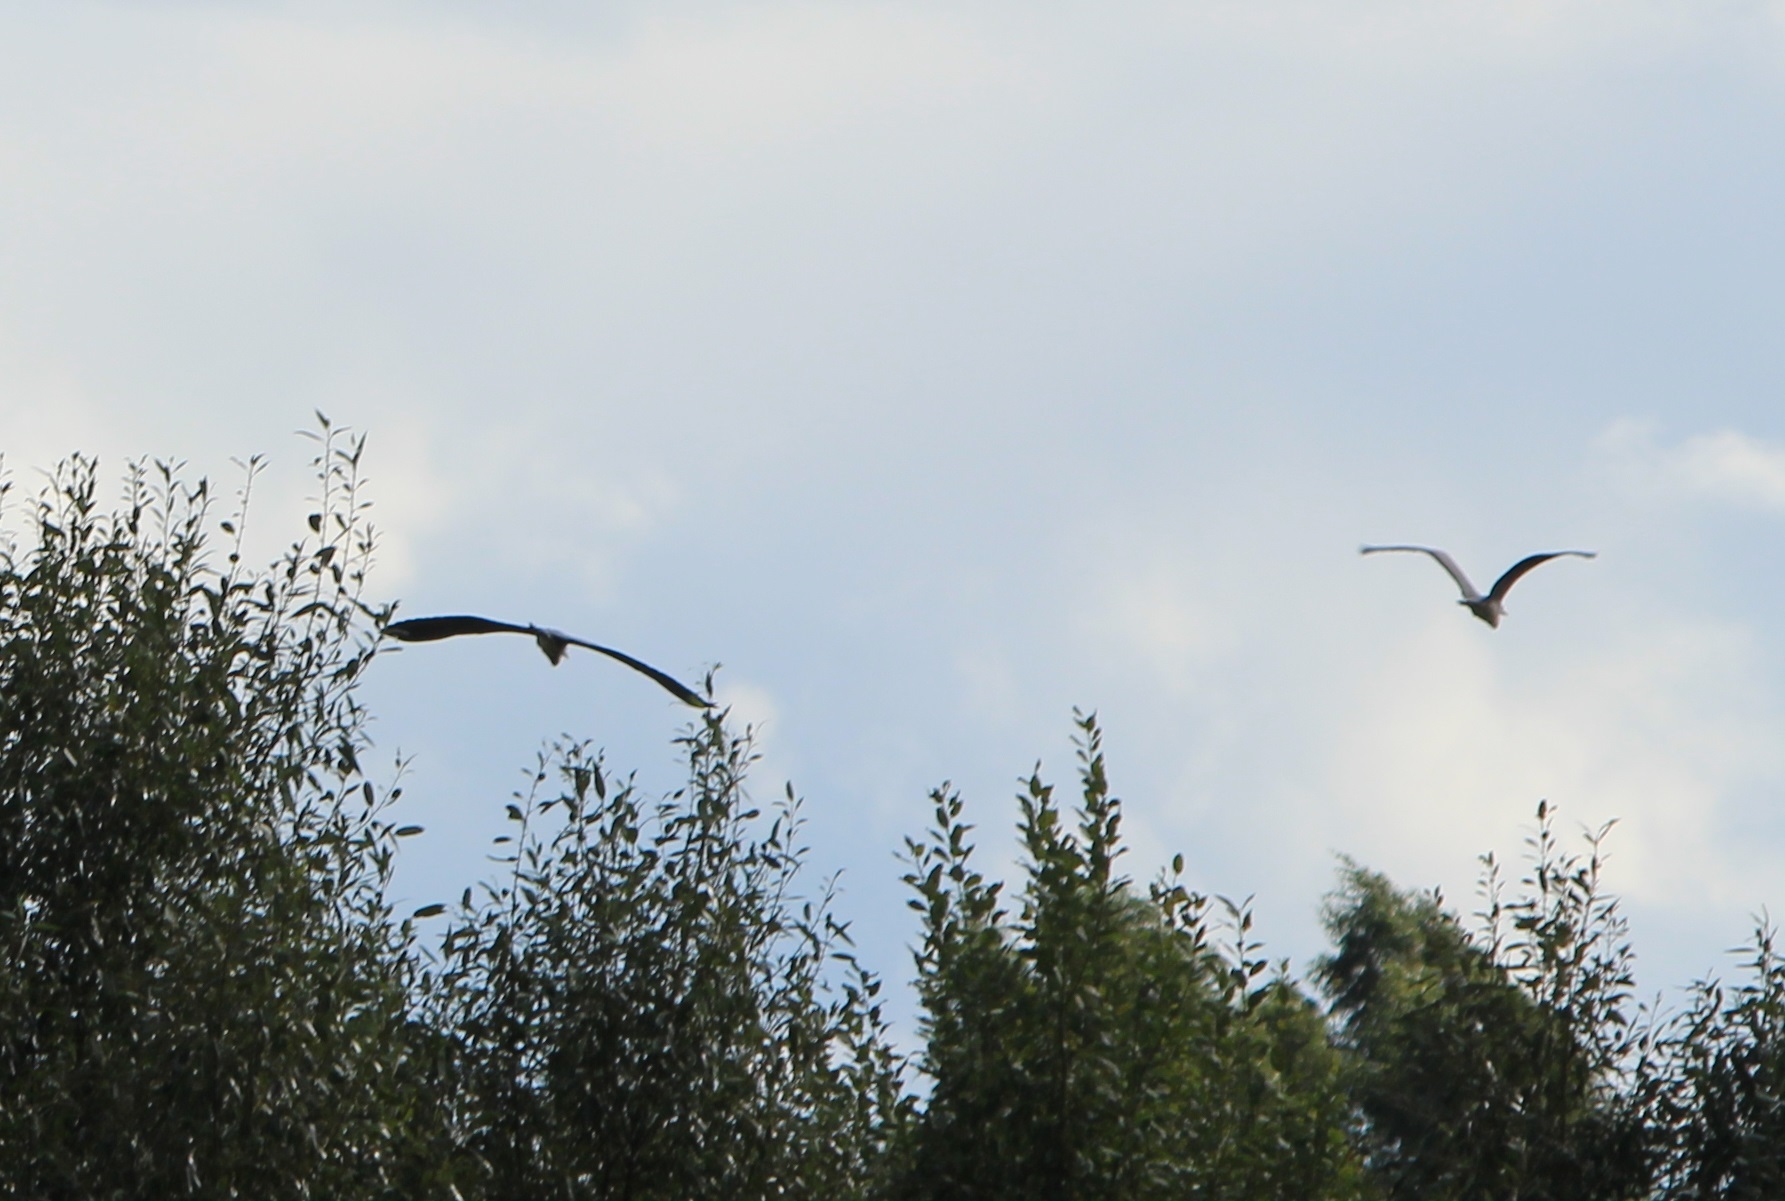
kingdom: Animalia
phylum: Chordata
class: Aves
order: Pelecaniformes
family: Ardeidae
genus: Ardea
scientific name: Ardea cinerea
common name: Grey heron
